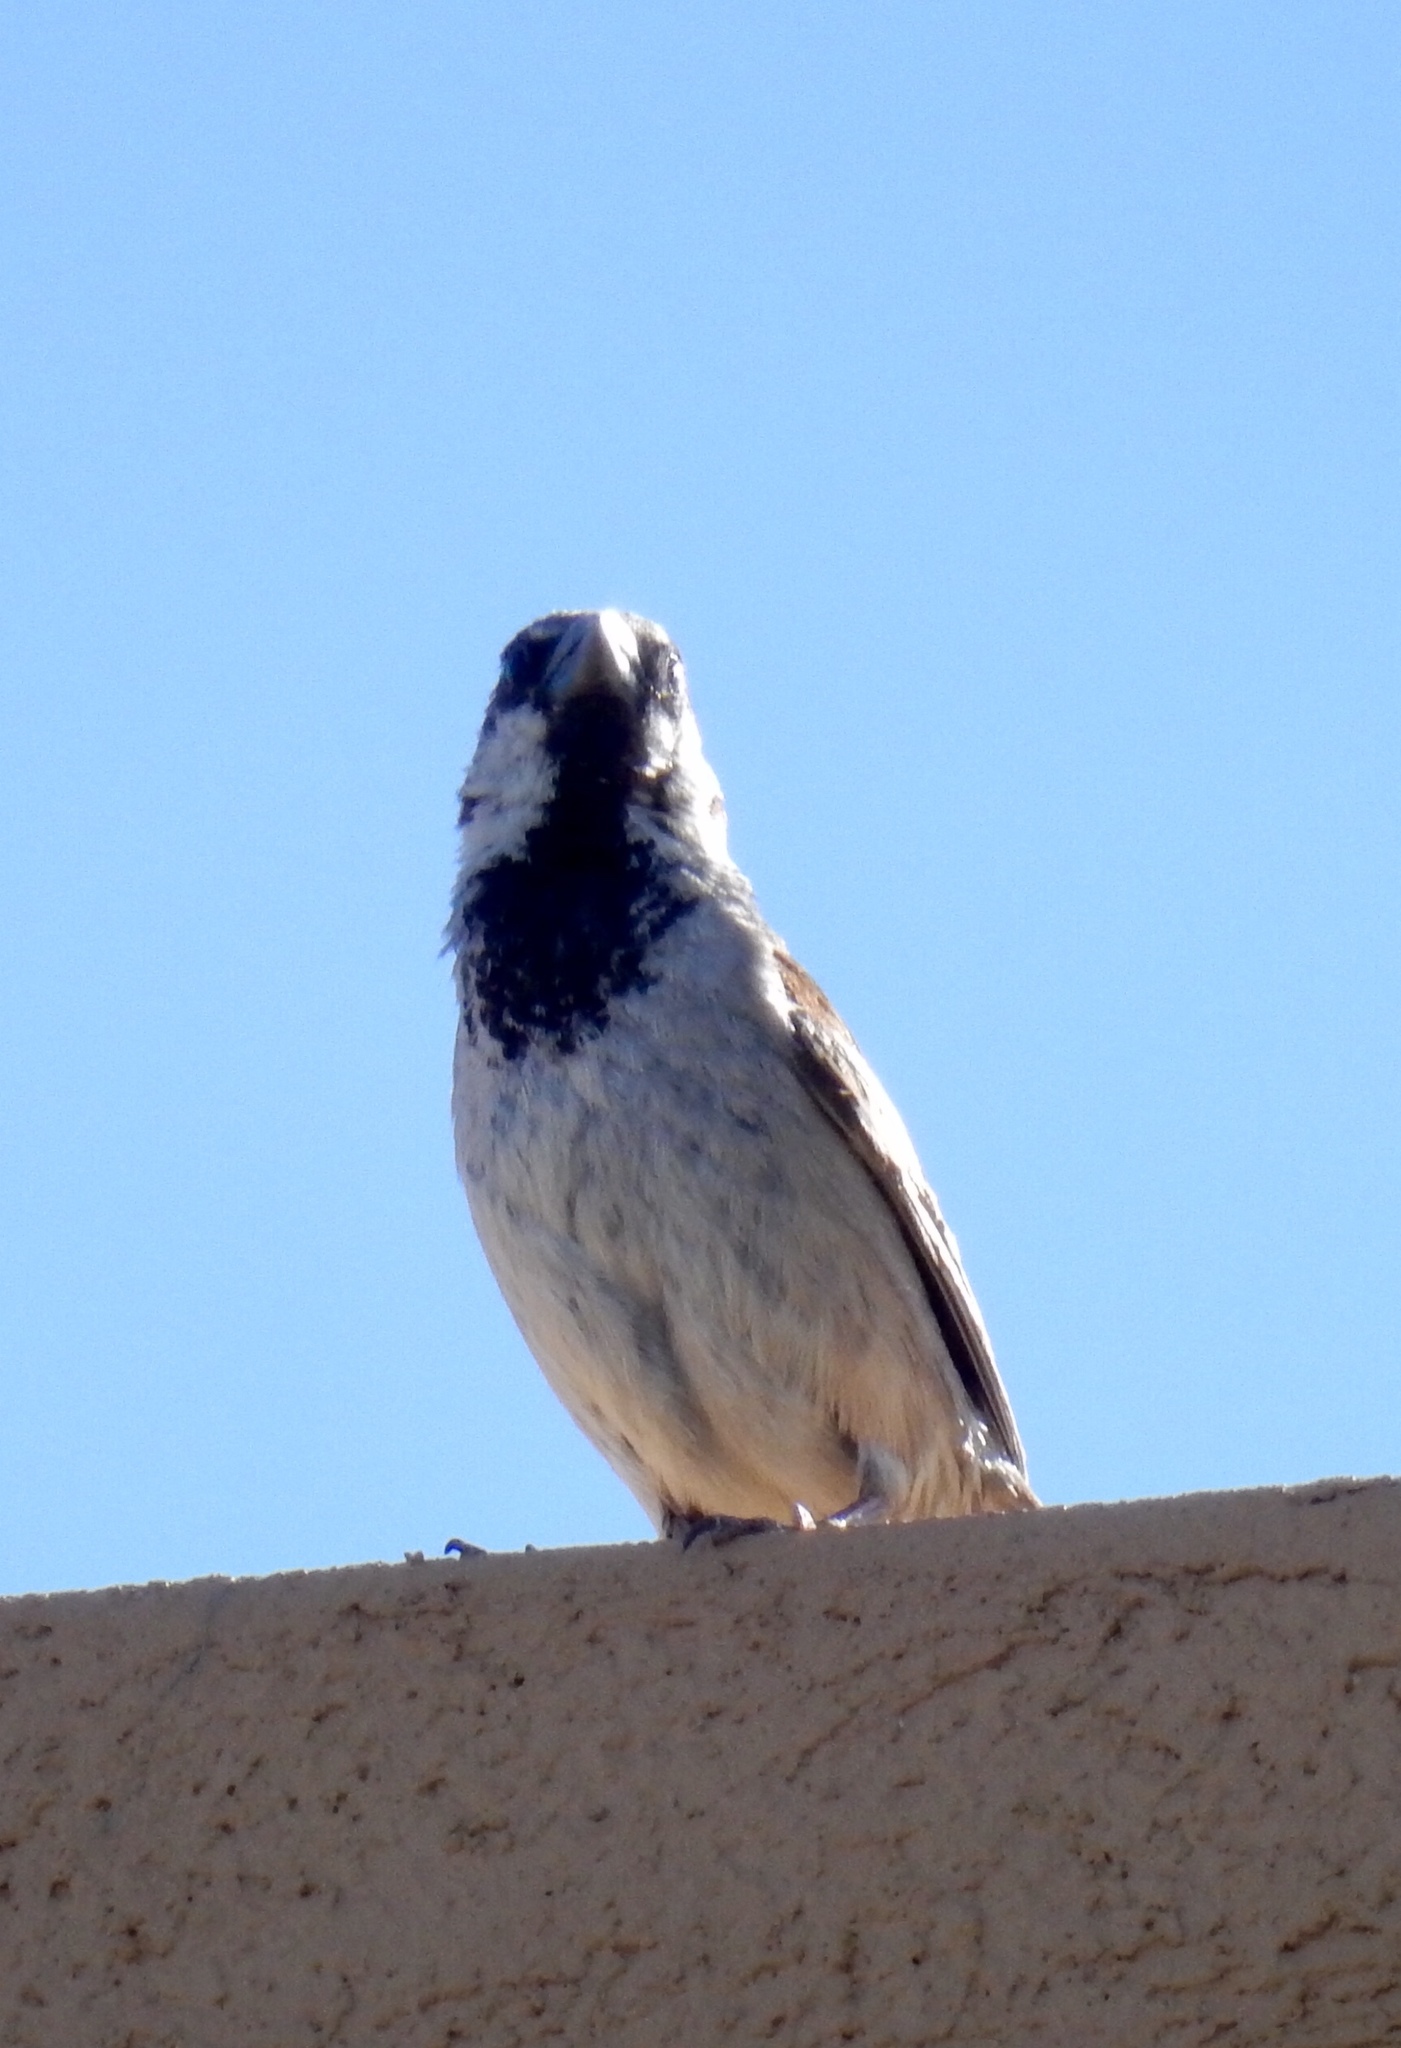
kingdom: Animalia
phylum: Chordata
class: Aves
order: Passeriformes
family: Passeridae
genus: Passer
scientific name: Passer domesticus
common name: House sparrow
